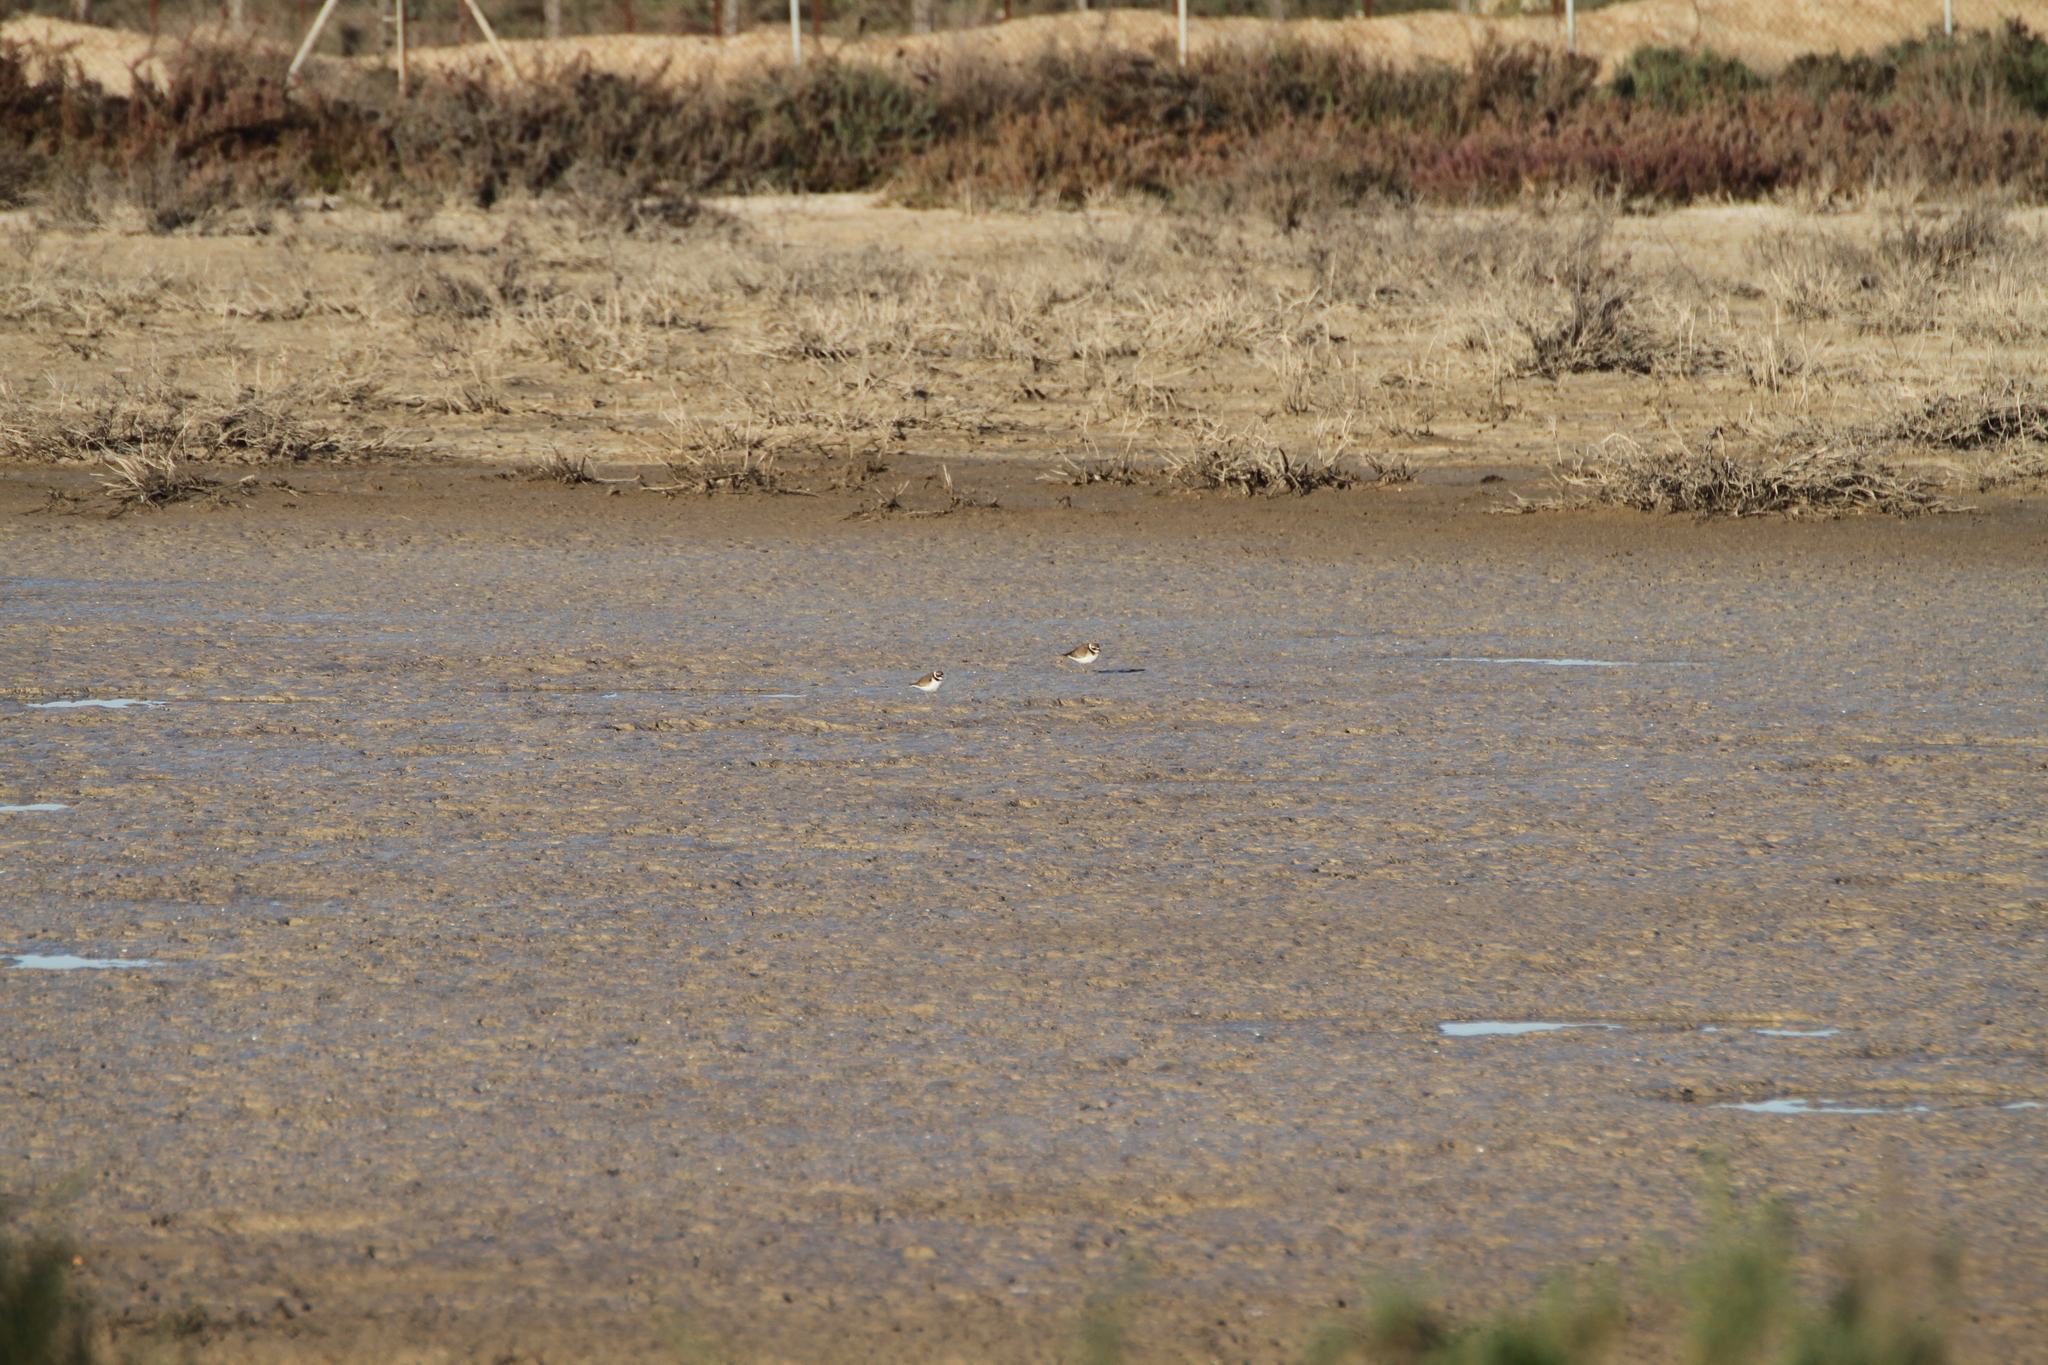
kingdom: Animalia
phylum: Chordata
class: Aves
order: Charadriiformes
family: Charadriidae
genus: Charadrius
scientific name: Charadrius hiaticula
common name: Common ringed plover
